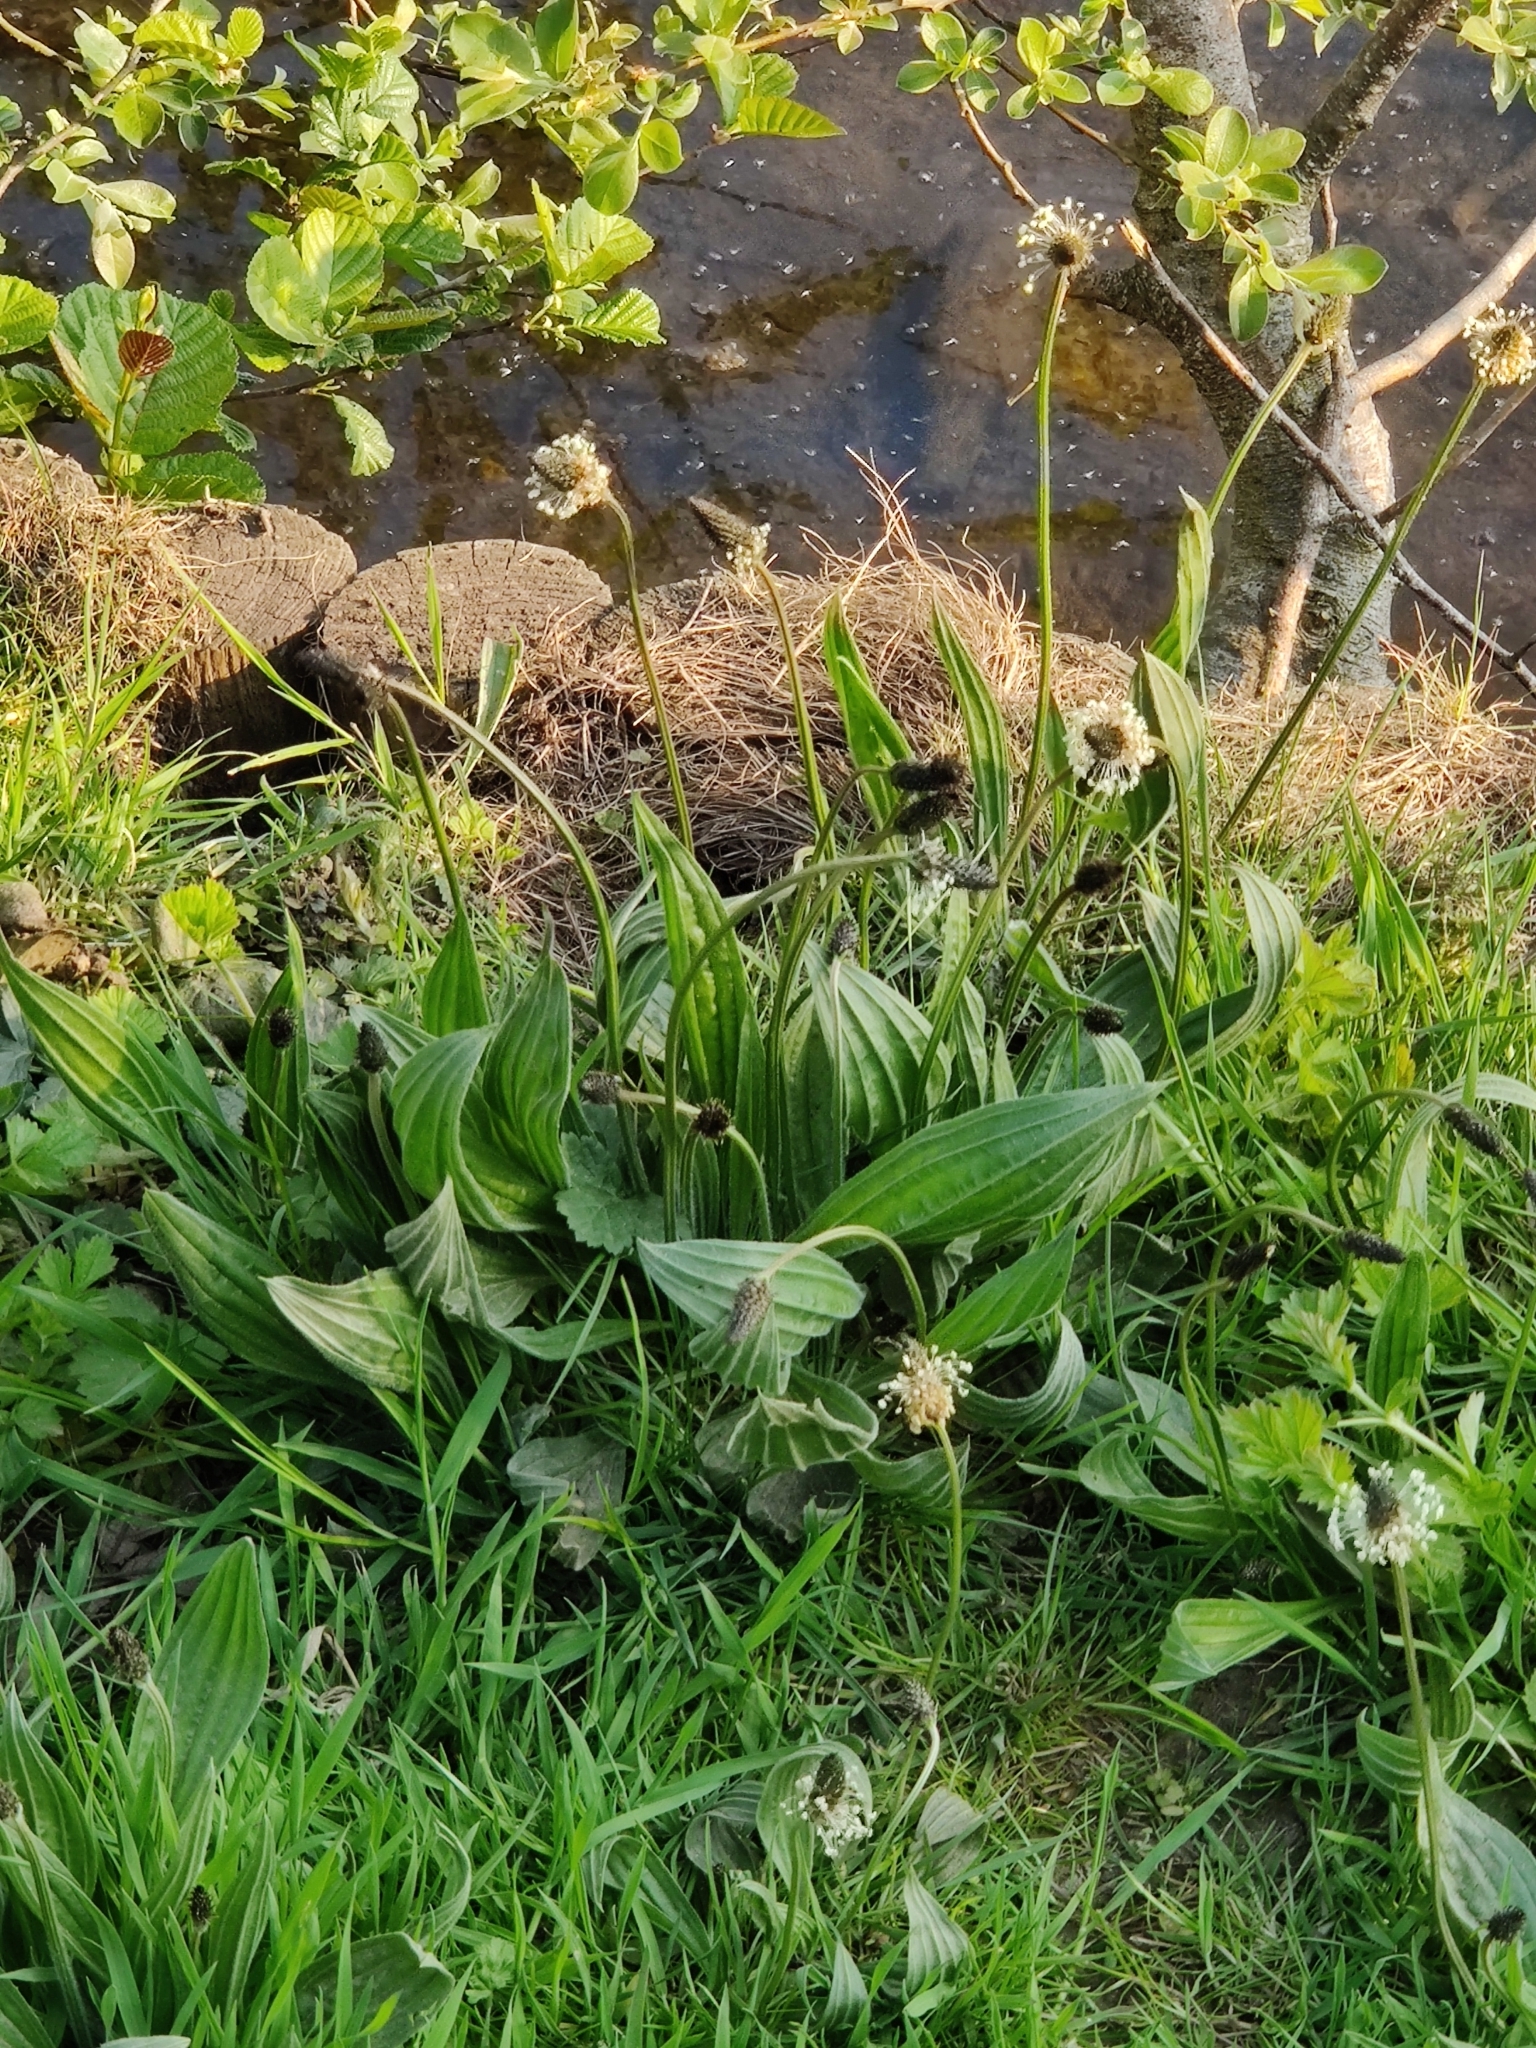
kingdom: Plantae
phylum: Tracheophyta
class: Magnoliopsida
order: Lamiales
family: Plantaginaceae
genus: Plantago
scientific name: Plantago lanceolata
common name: Ribwort plantain
